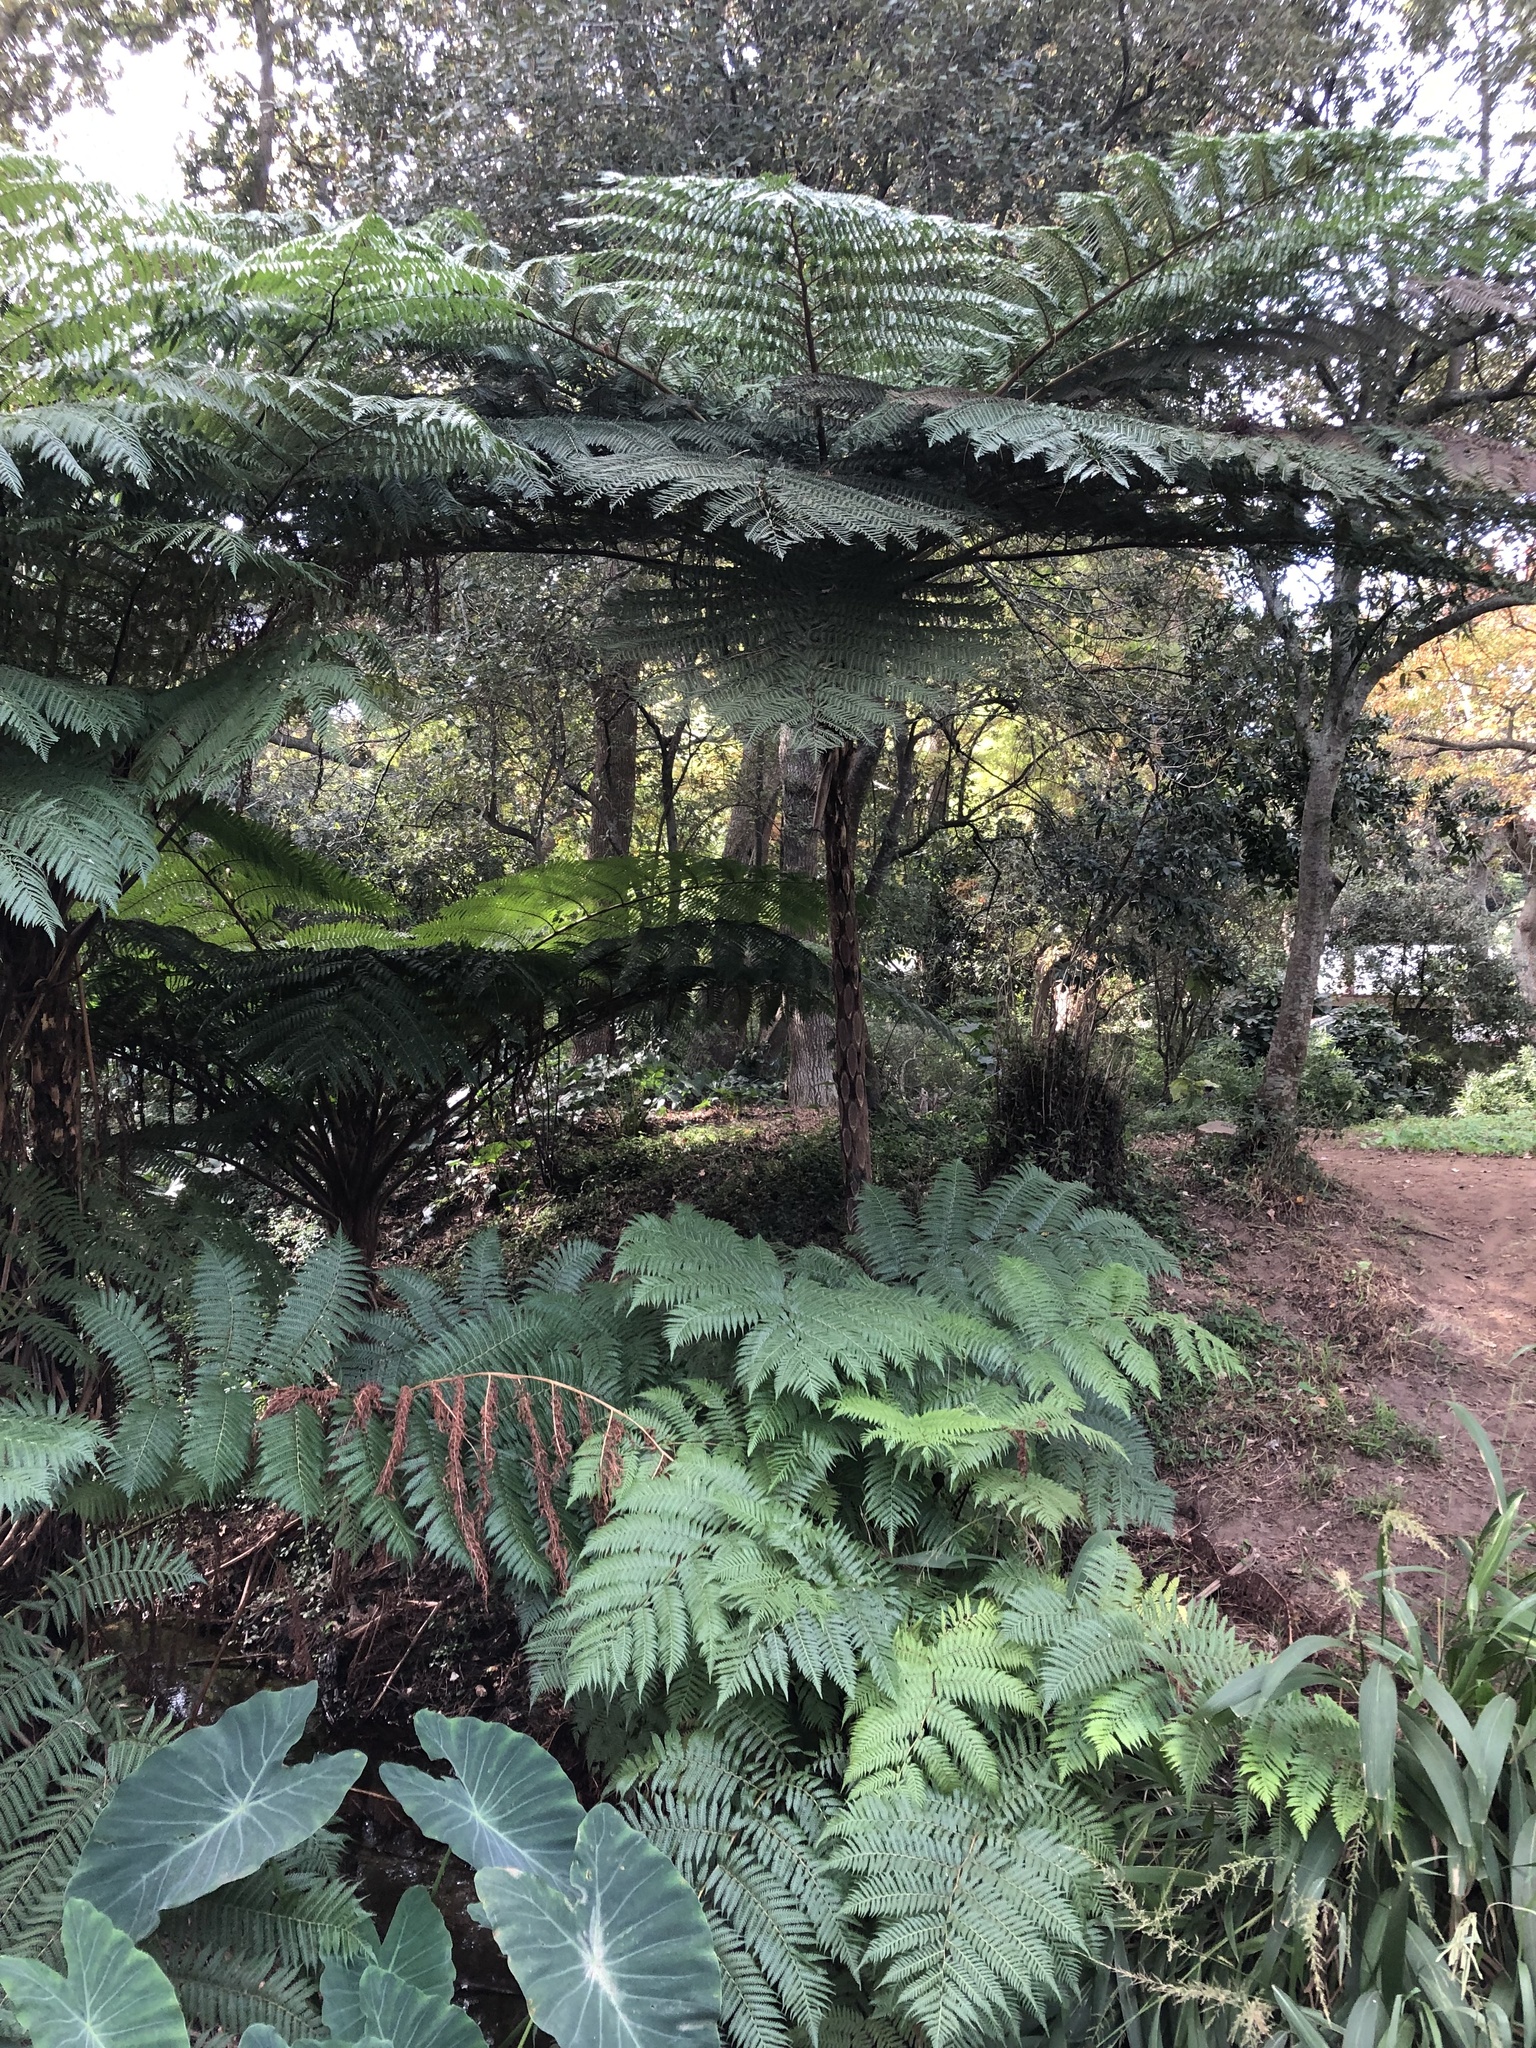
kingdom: Plantae
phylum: Tracheophyta
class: Polypodiopsida
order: Cyatheales
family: Cyatheaceae
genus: Sphaeropteris
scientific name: Sphaeropteris cooperi
